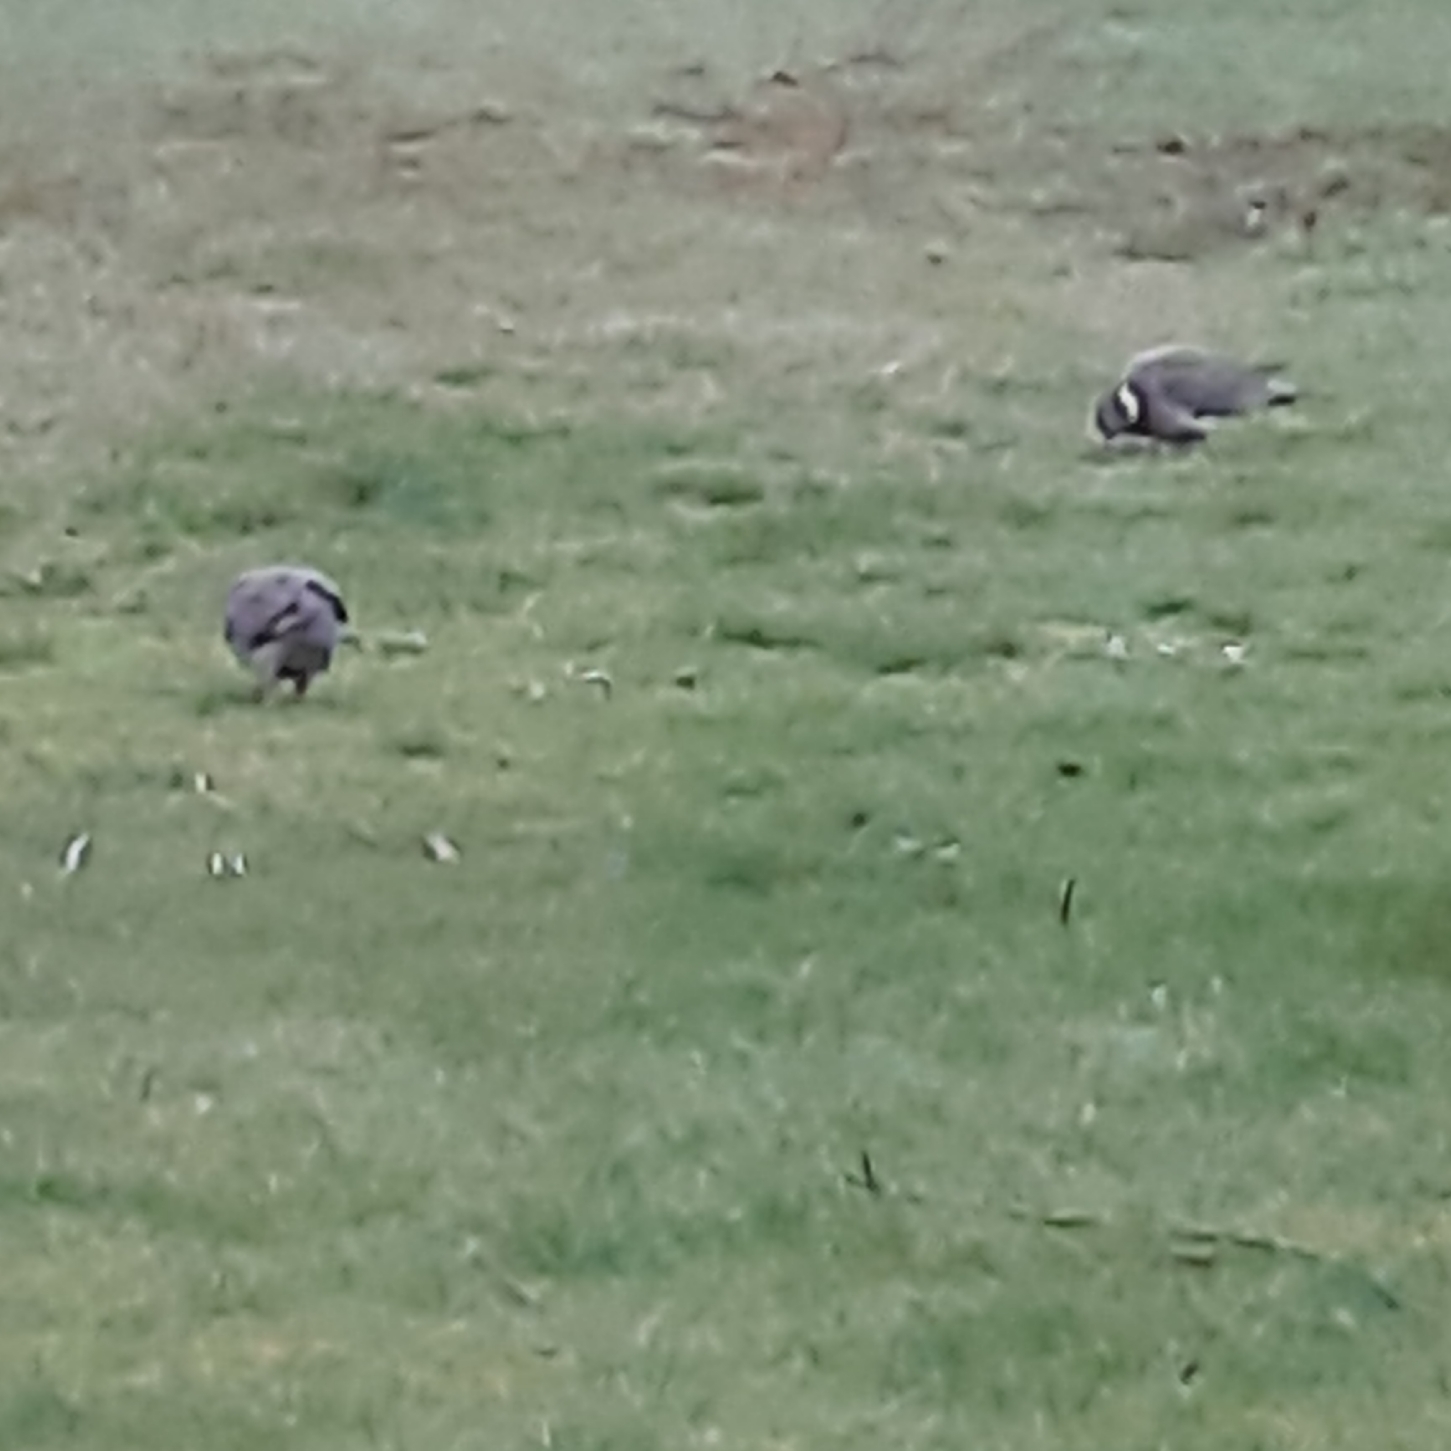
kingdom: Animalia
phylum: Chordata
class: Aves
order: Columbiformes
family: Columbidae
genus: Columba
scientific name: Columba palumbus
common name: Common wood pigeon
